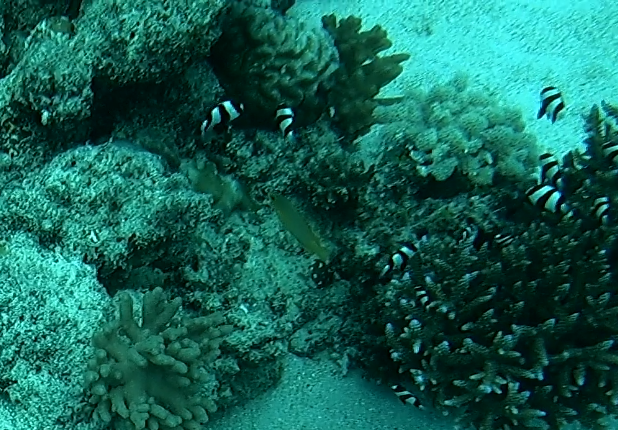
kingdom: Animalia
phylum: Chordata
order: Perciformes
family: Pomacentridae
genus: Dascyllus
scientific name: Dascyllus aruanus
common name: Humbug dascyllus
